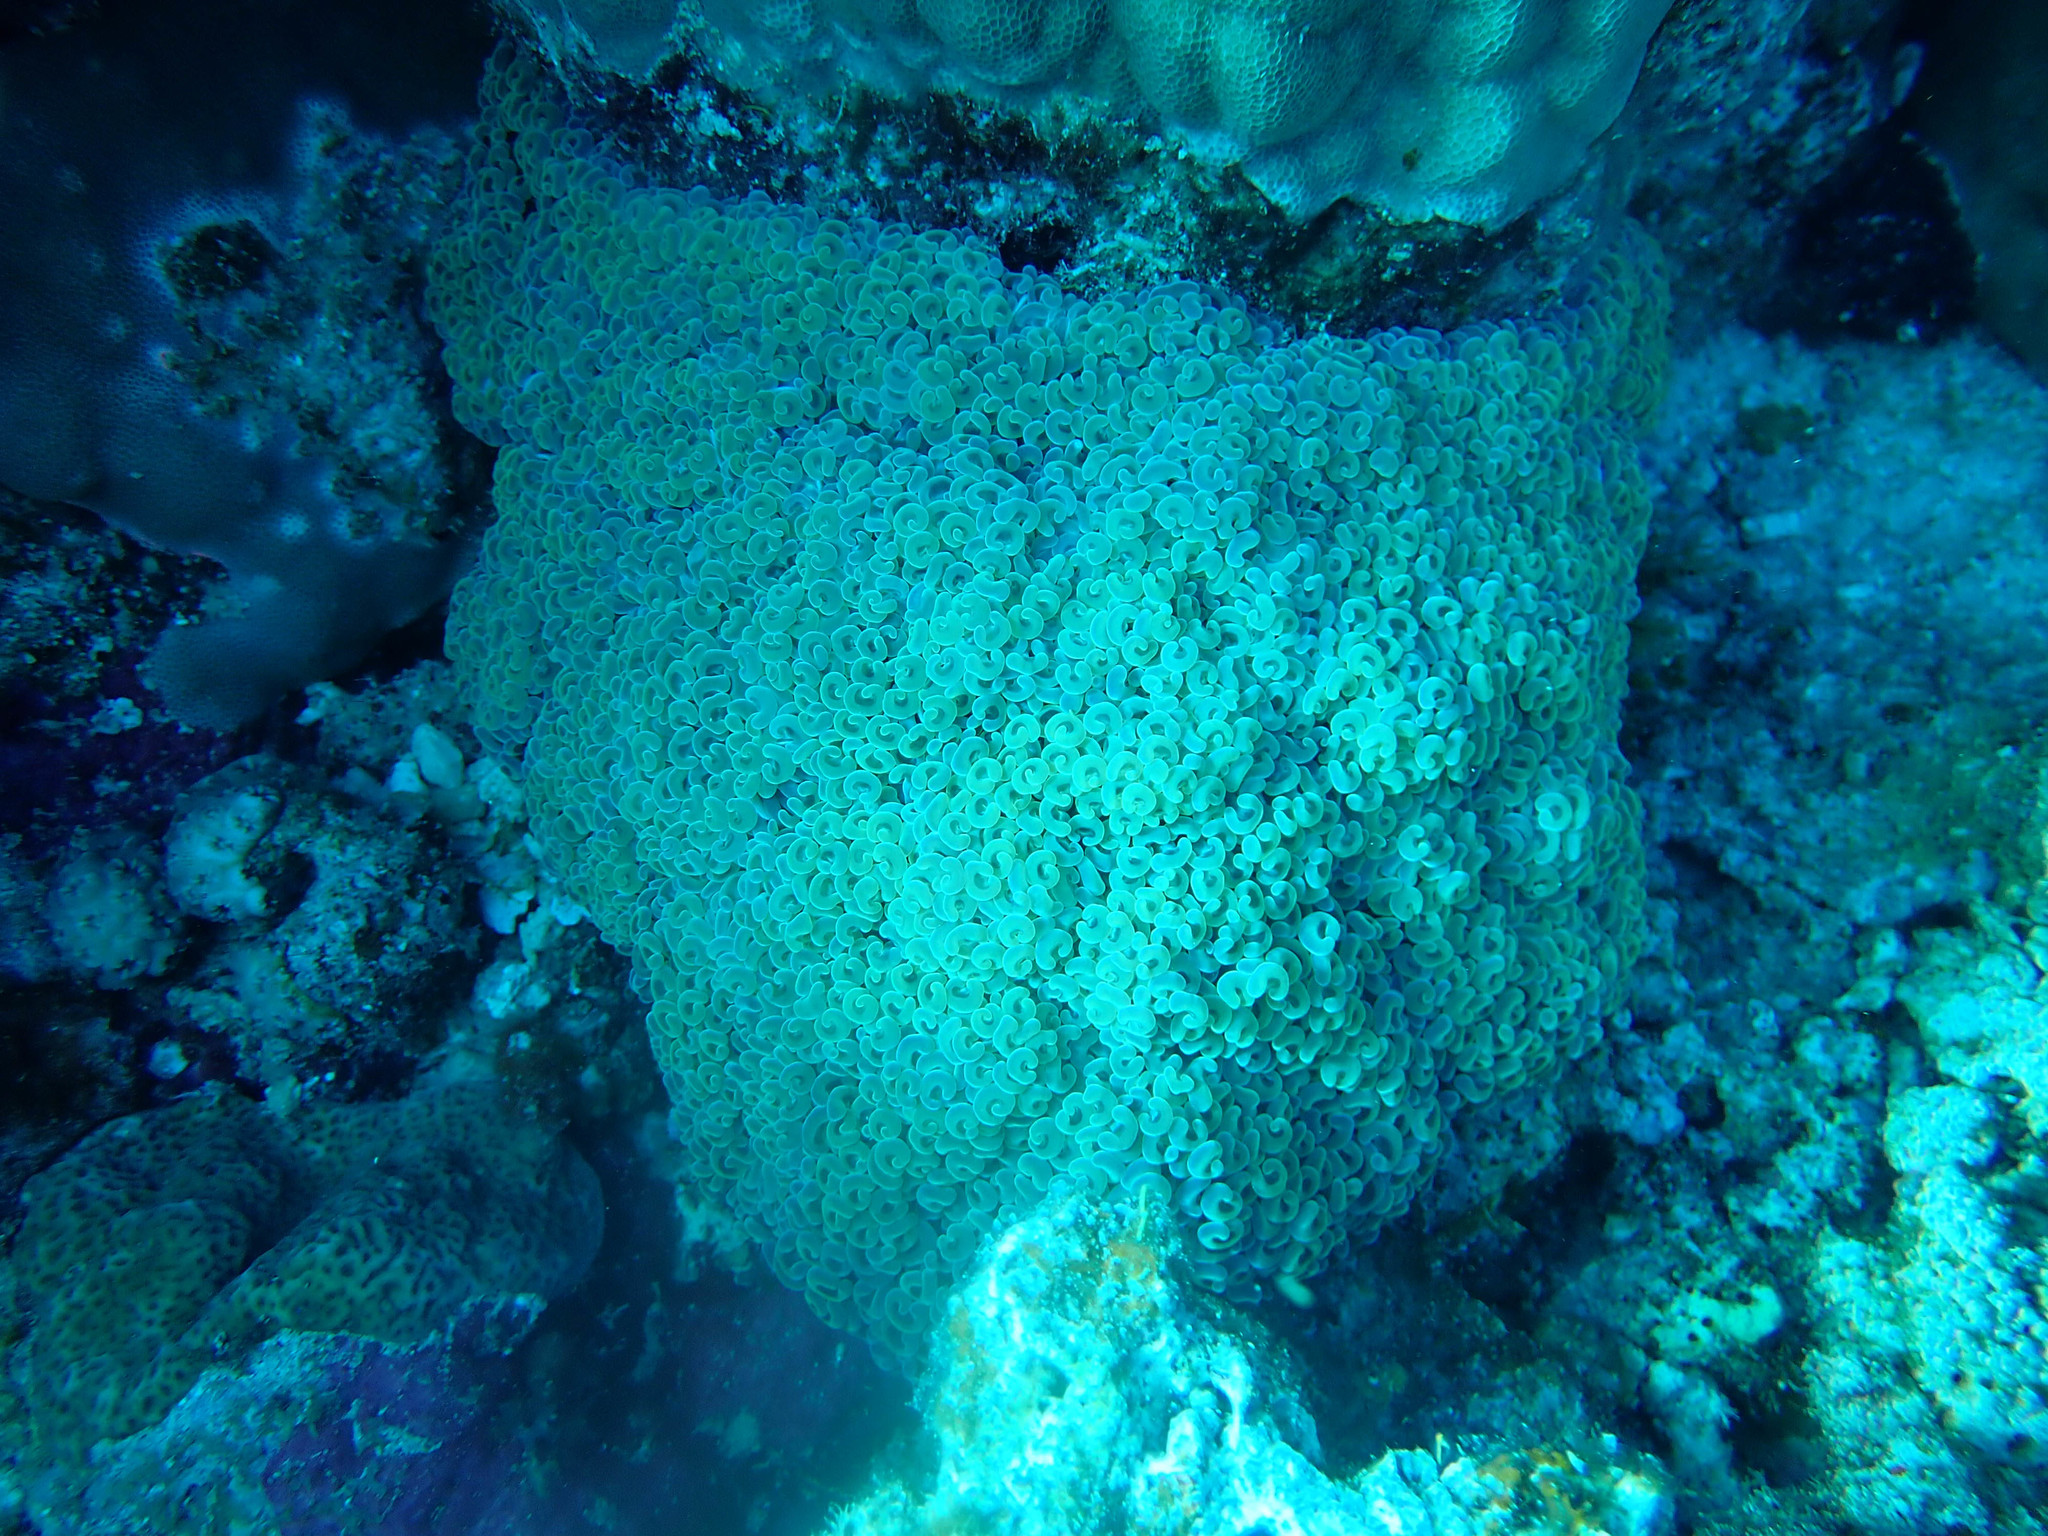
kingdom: Animalia
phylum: Cnidaria
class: Anthozoa
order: Scleractinia
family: Euphylliidae
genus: Fimbriaphyllia
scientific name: Fimbriaphyllia ancora
